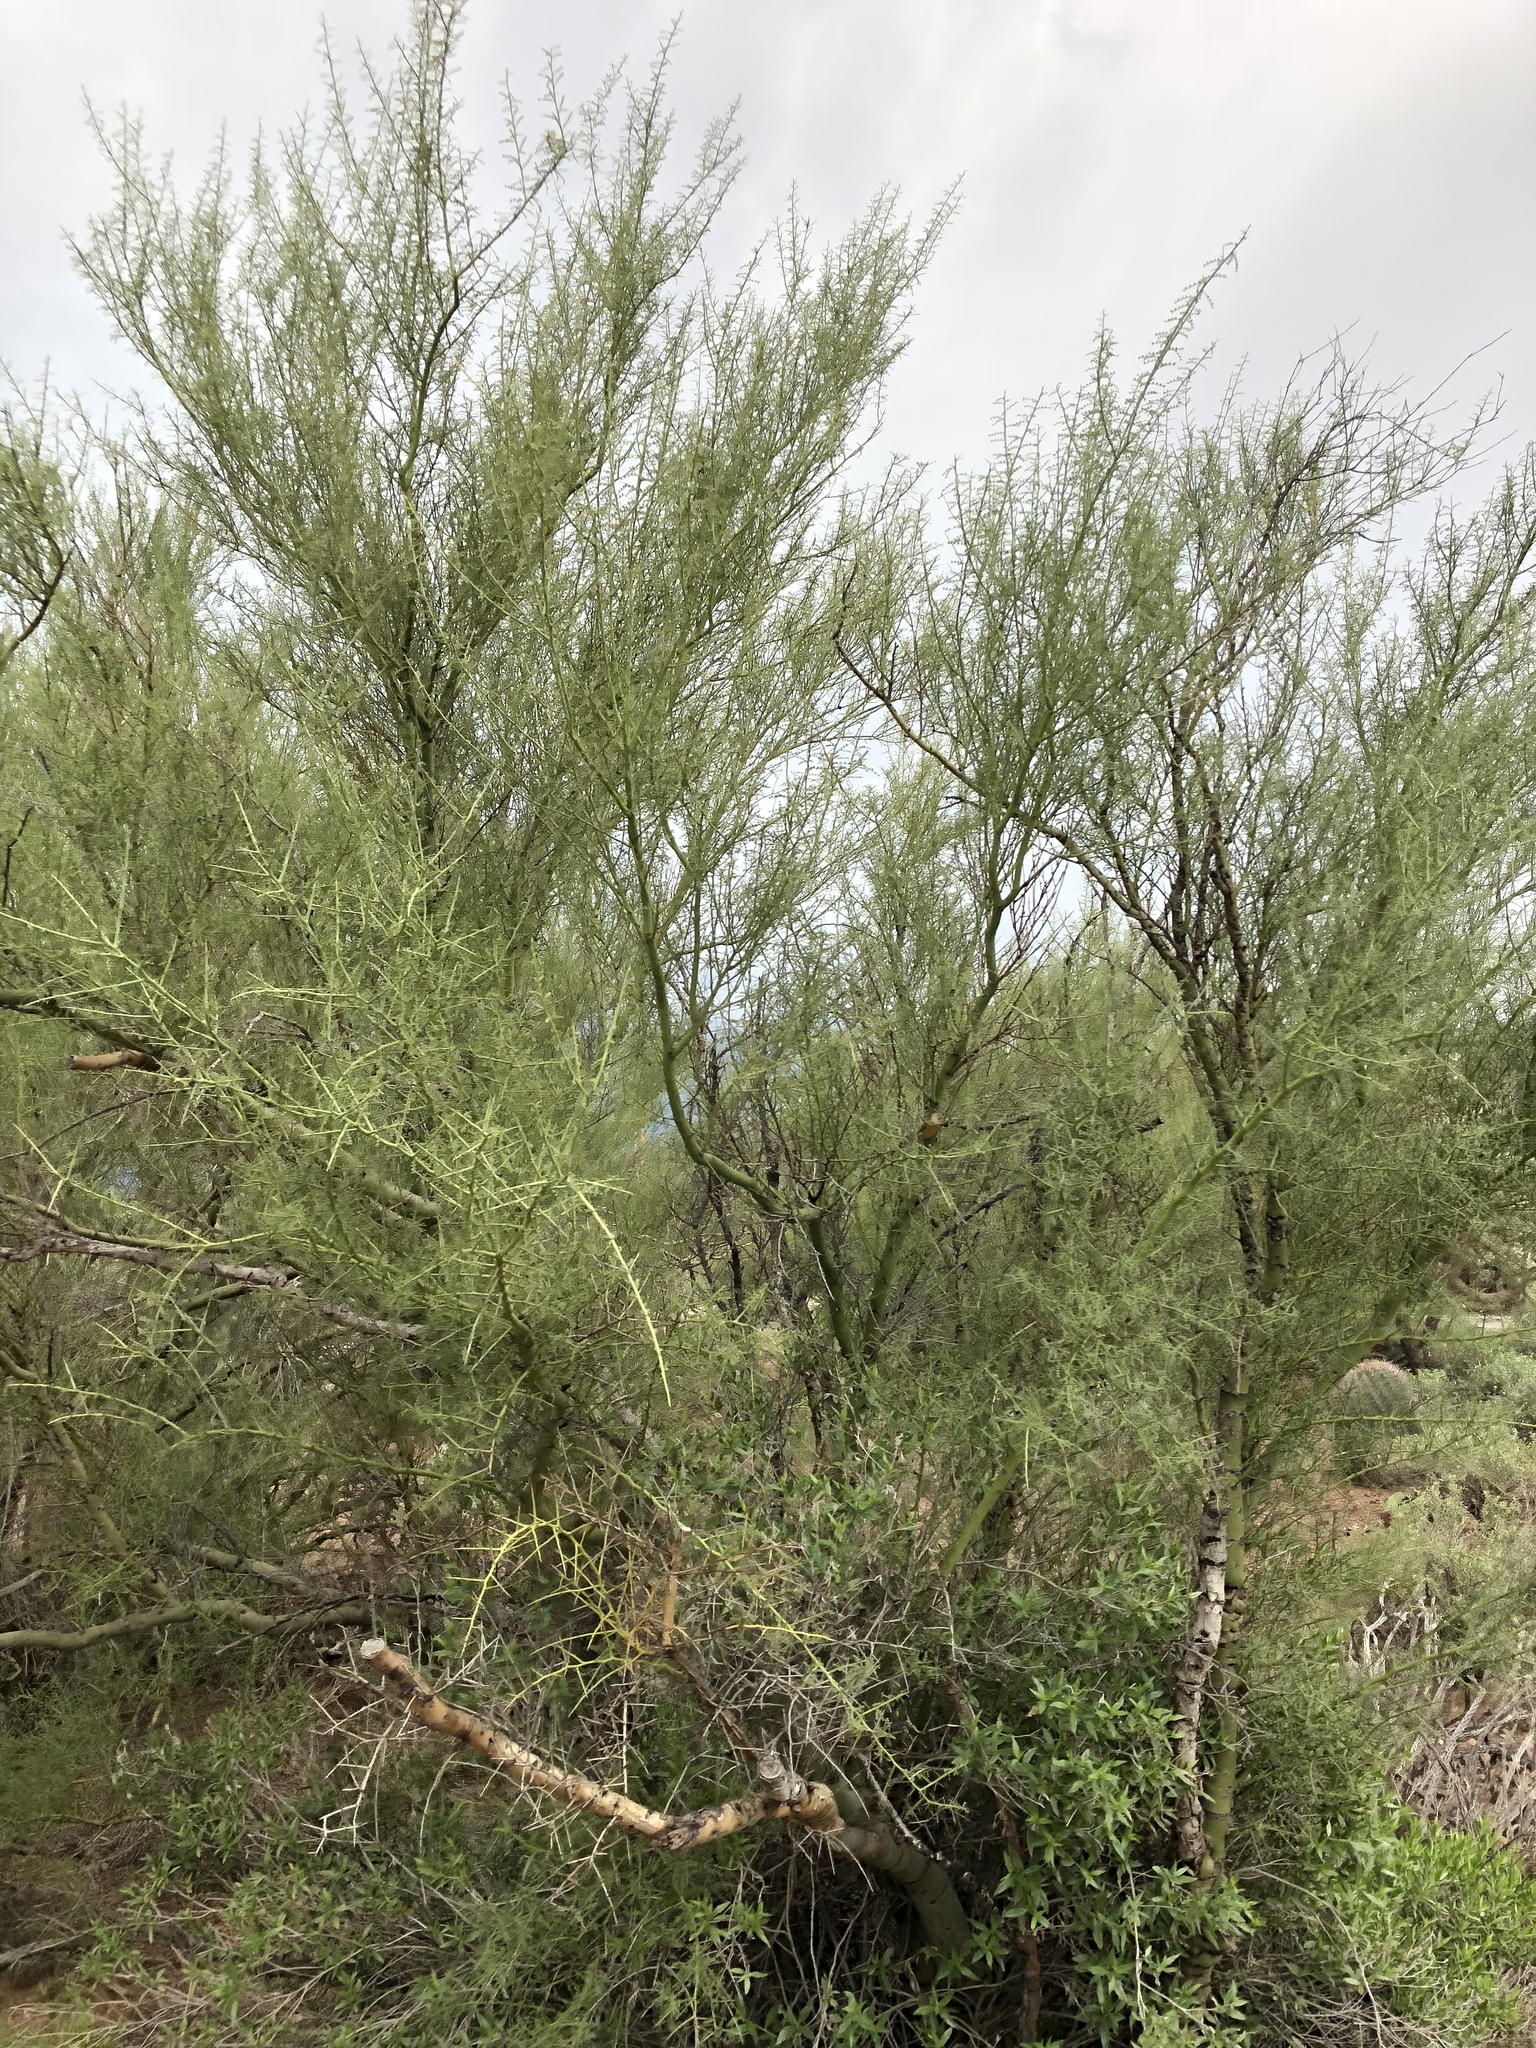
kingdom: Plantae
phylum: Tracheophyta
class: Magnoliopsida
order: Fabales
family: Fabaceae
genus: Parkinsonia
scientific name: Parkinsonia microphylla
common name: Yellow paloverde
